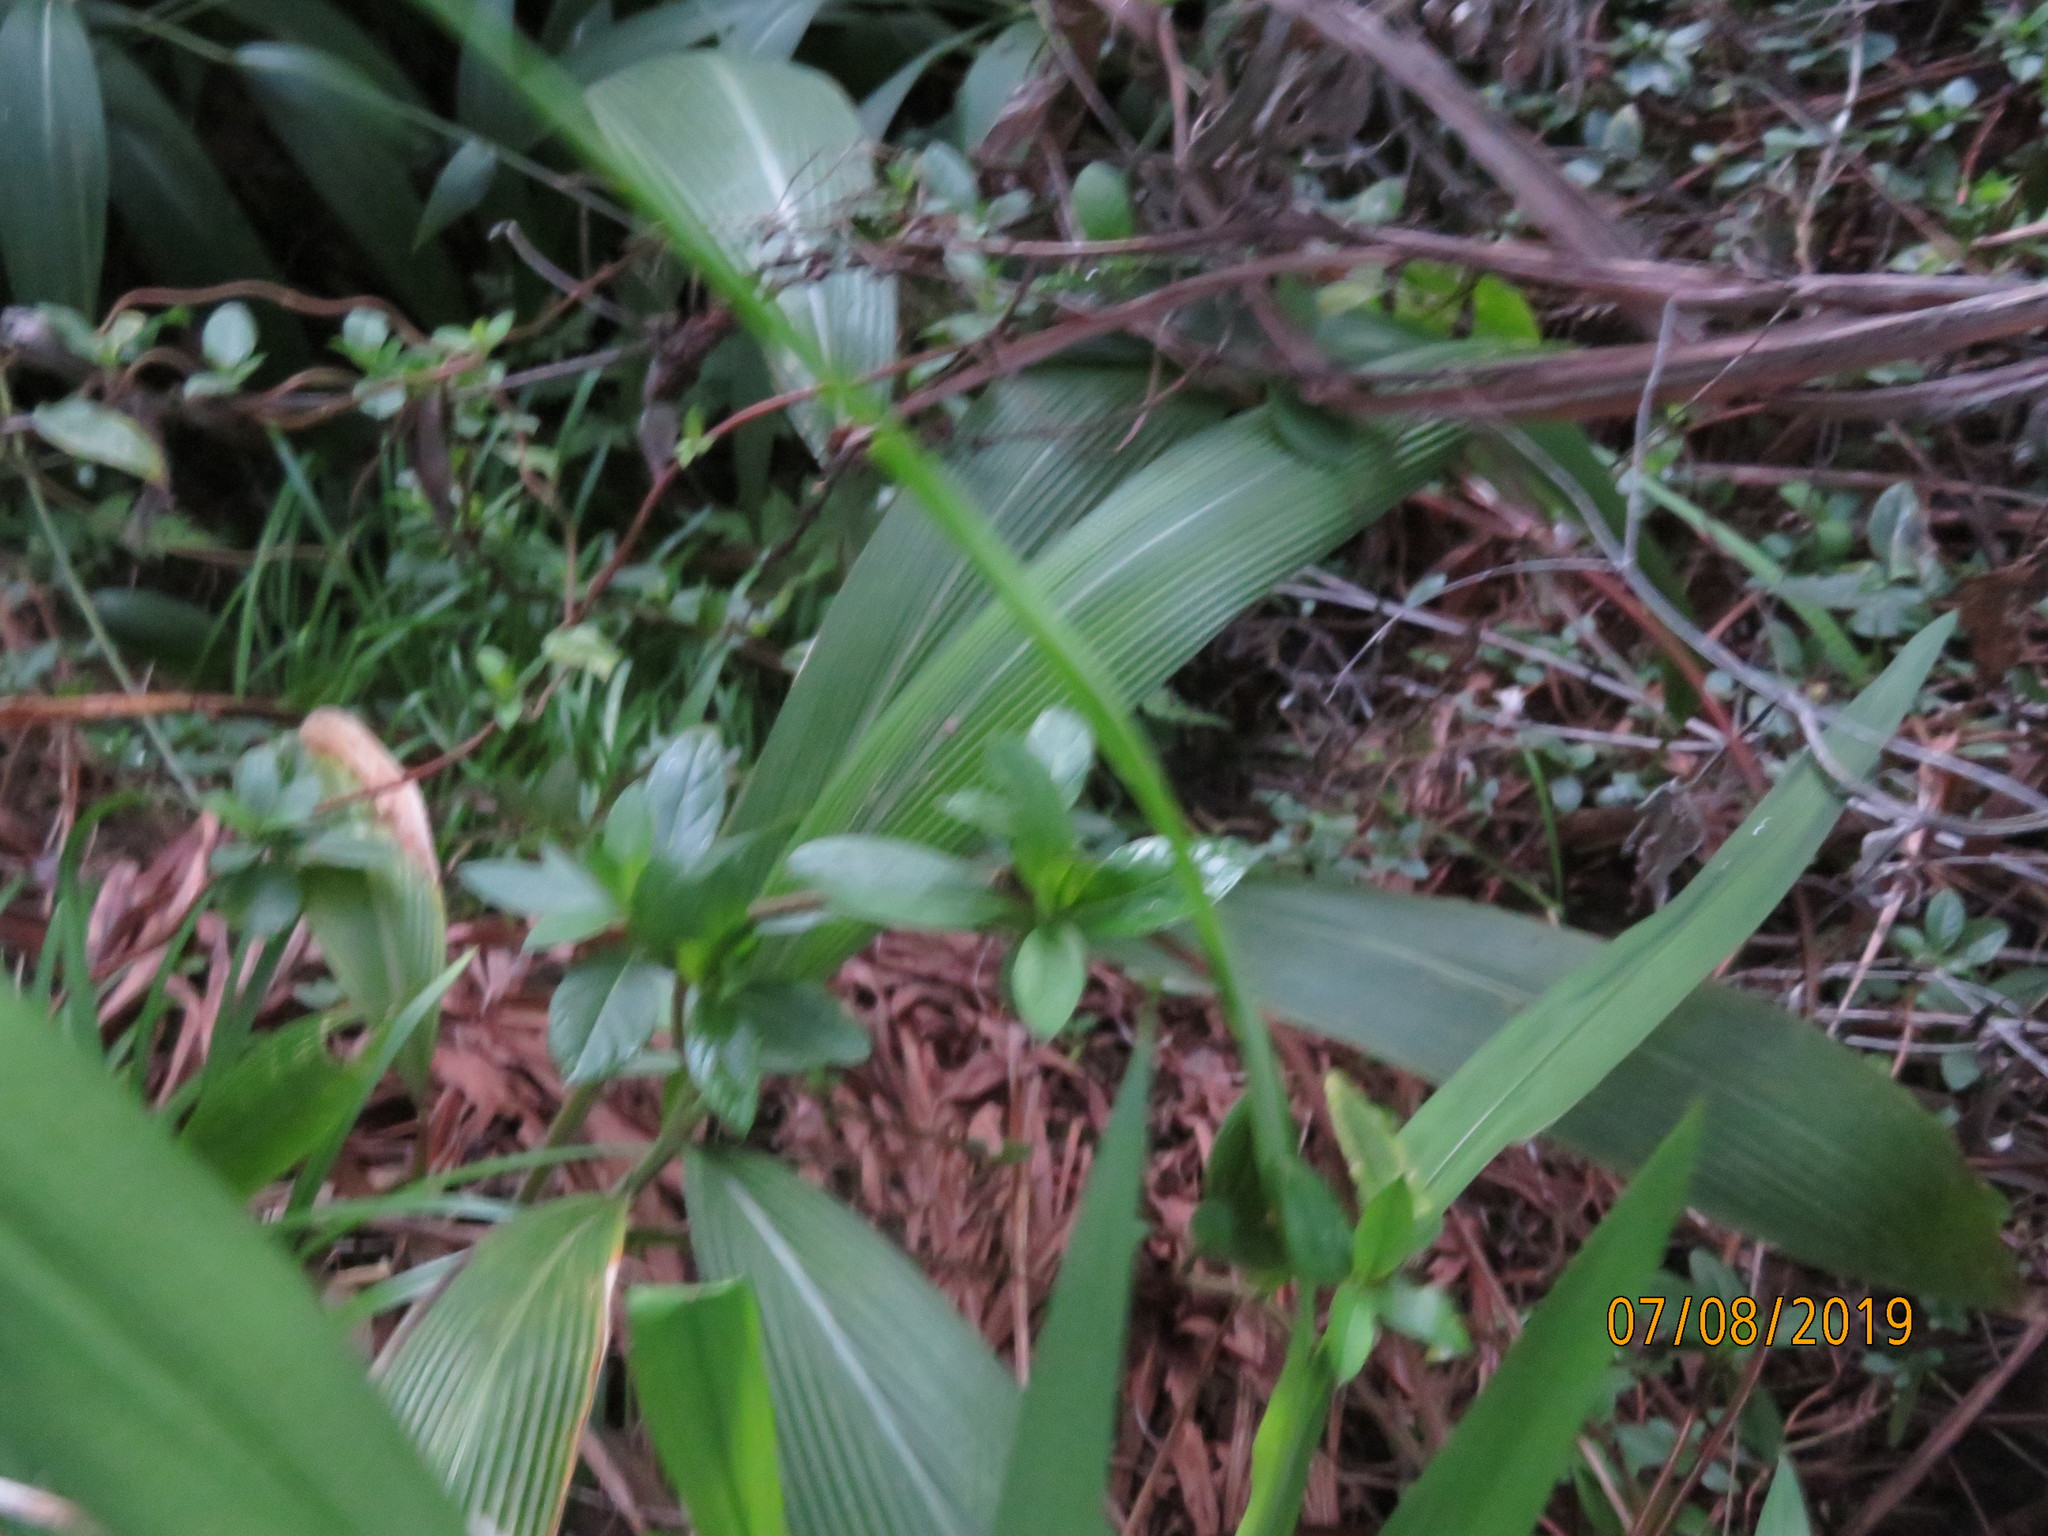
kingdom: Plantae
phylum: Tracheophyta
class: Liliopsida
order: Poales
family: Poaceae
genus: Setaria
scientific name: Setaria palmifolia
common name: Broadleaved bristlegrass
